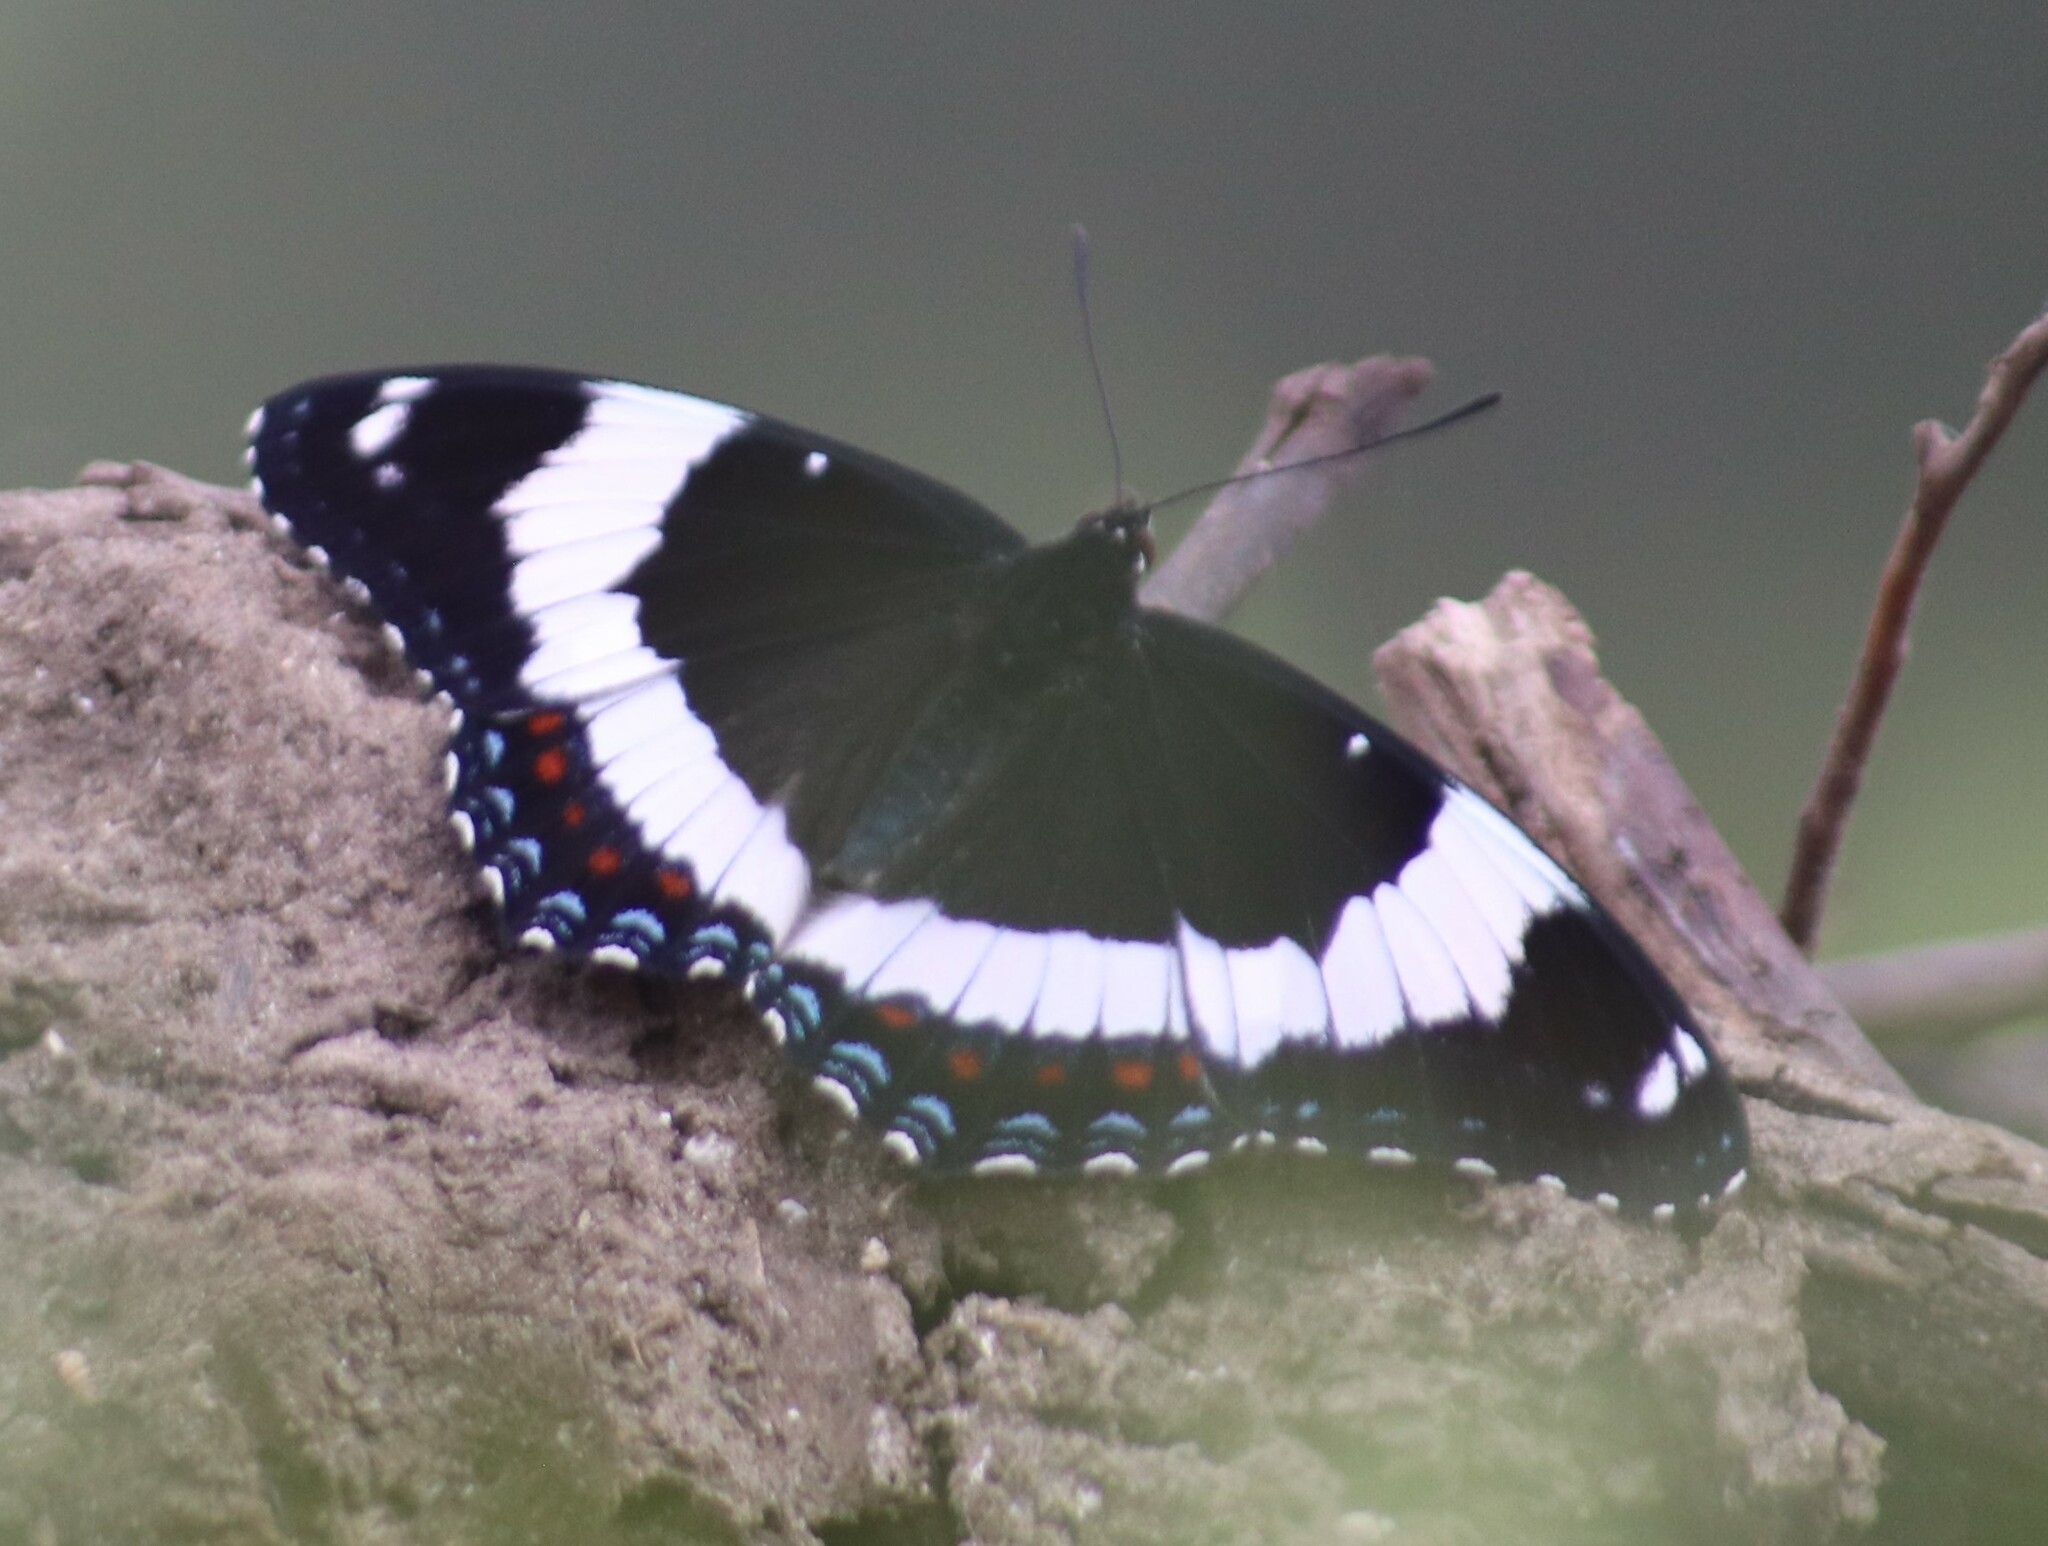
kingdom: Animalia
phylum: Arthropoda
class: Insecta
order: Lepidoptera
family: Nymphalidae
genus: Limenitis
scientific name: Limenitis arthemis
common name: Red-spotted admiral
